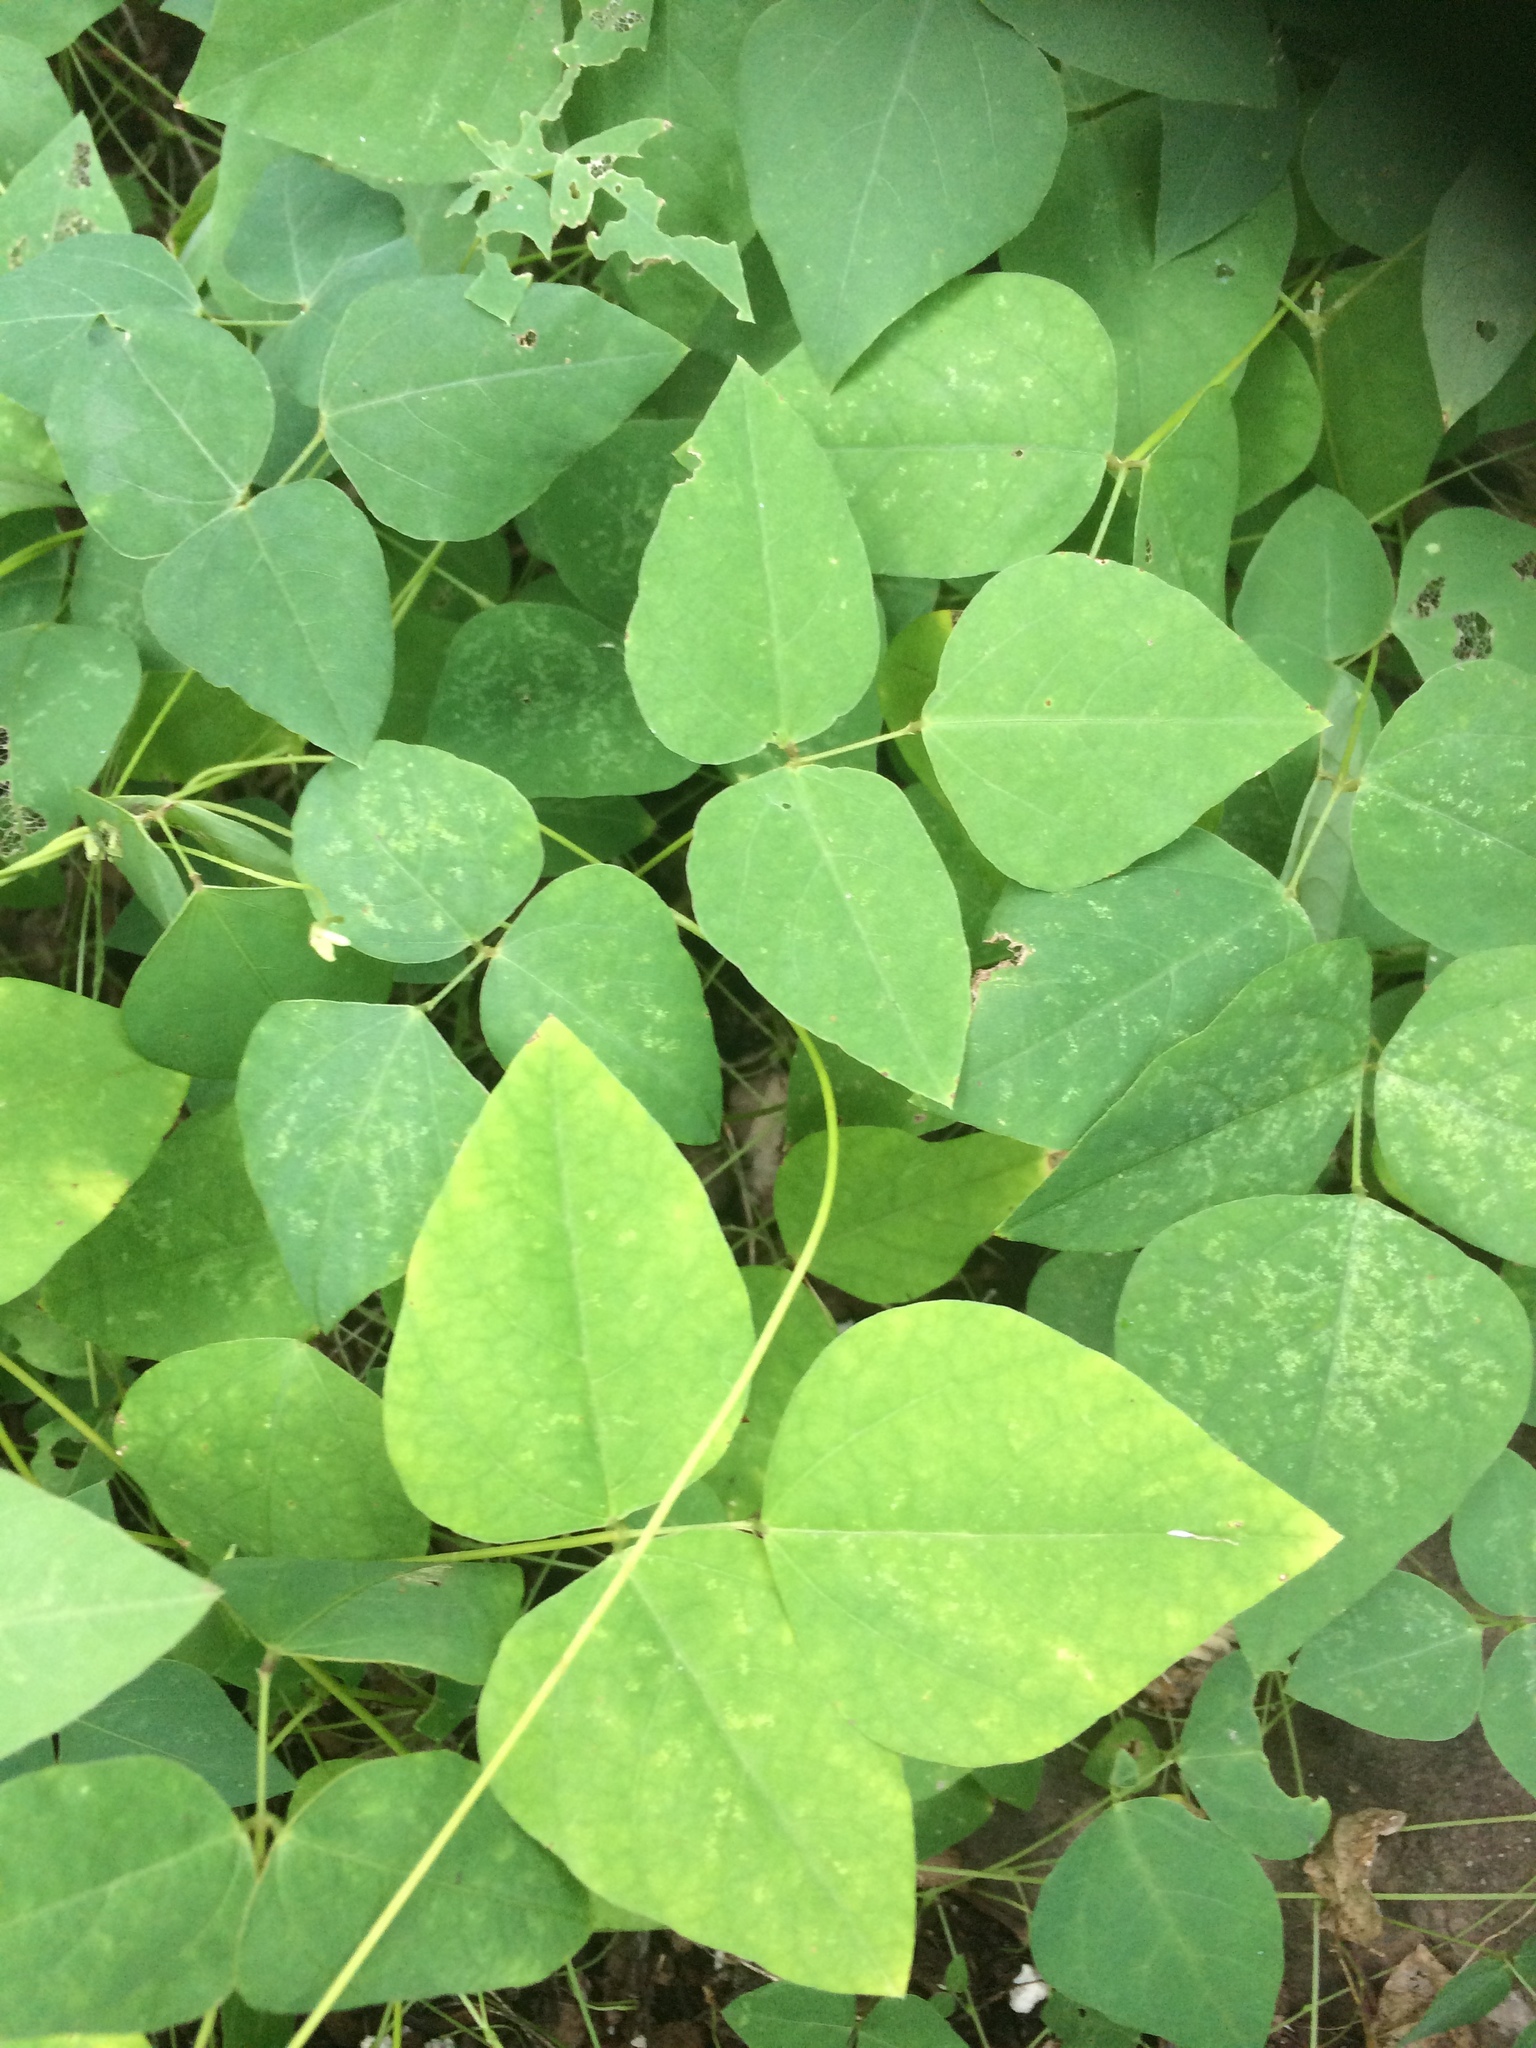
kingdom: Plantae
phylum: Tracheophyta
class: Magnoliopsida
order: Fabales
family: Fabaceae
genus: Amphicarpaea
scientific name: Amphicarpaea bracteata
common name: American hog peanut
